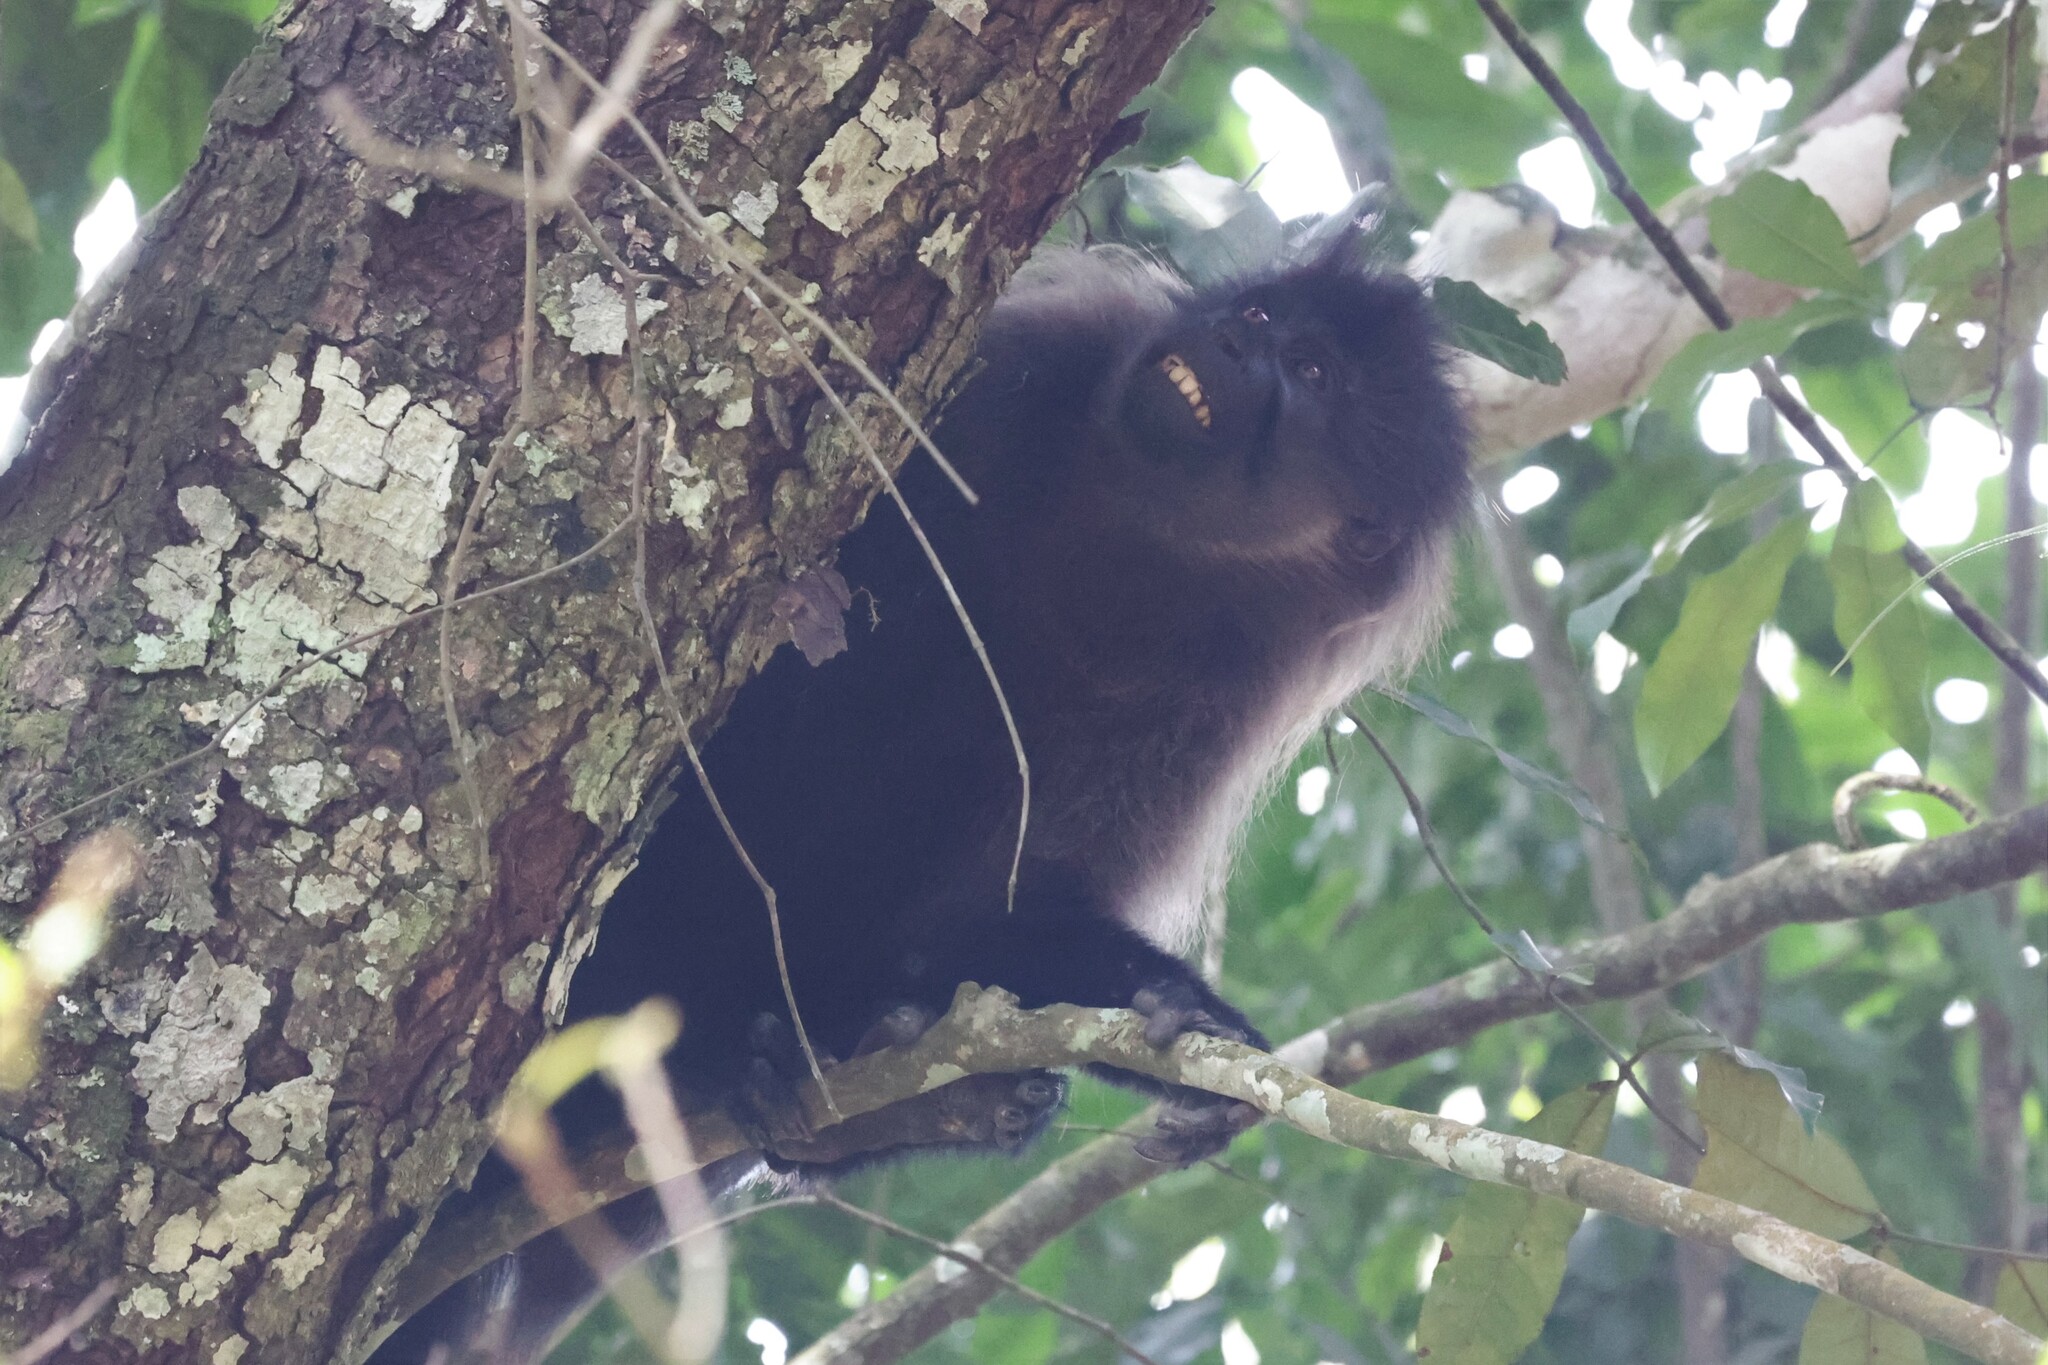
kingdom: Animalia
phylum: Chordata
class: Mammalia
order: Primates
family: Cercopithecidae
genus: Lophocebus
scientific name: Lophocebus albigena
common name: Gray-cheeked mangabey
